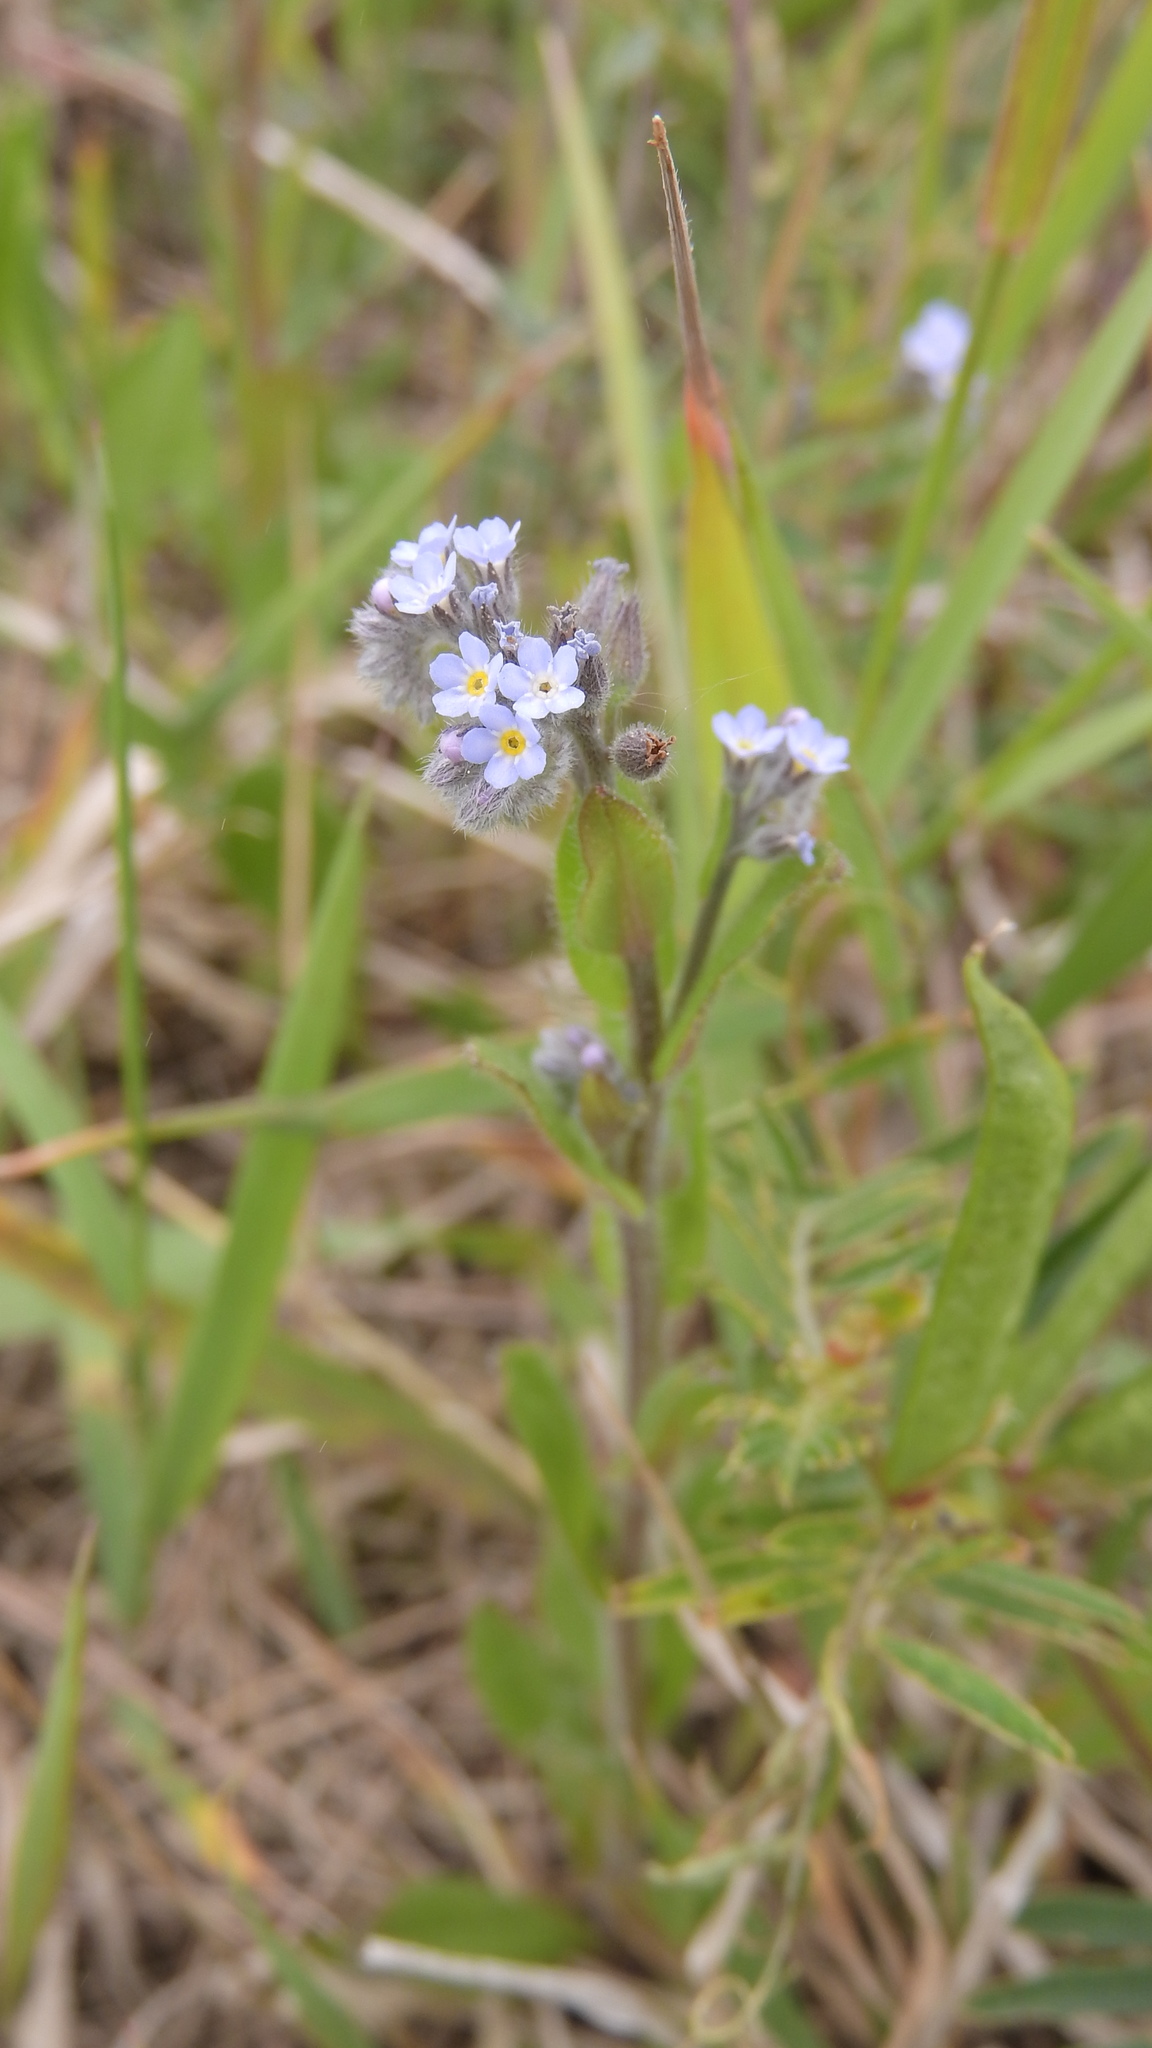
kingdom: Plantae
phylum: Tracheophyta
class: Magnoliopsida
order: Boraginales
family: Boraginaceae
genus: Myosotis
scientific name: Myosotis arvensis
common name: Field forget-me-not
